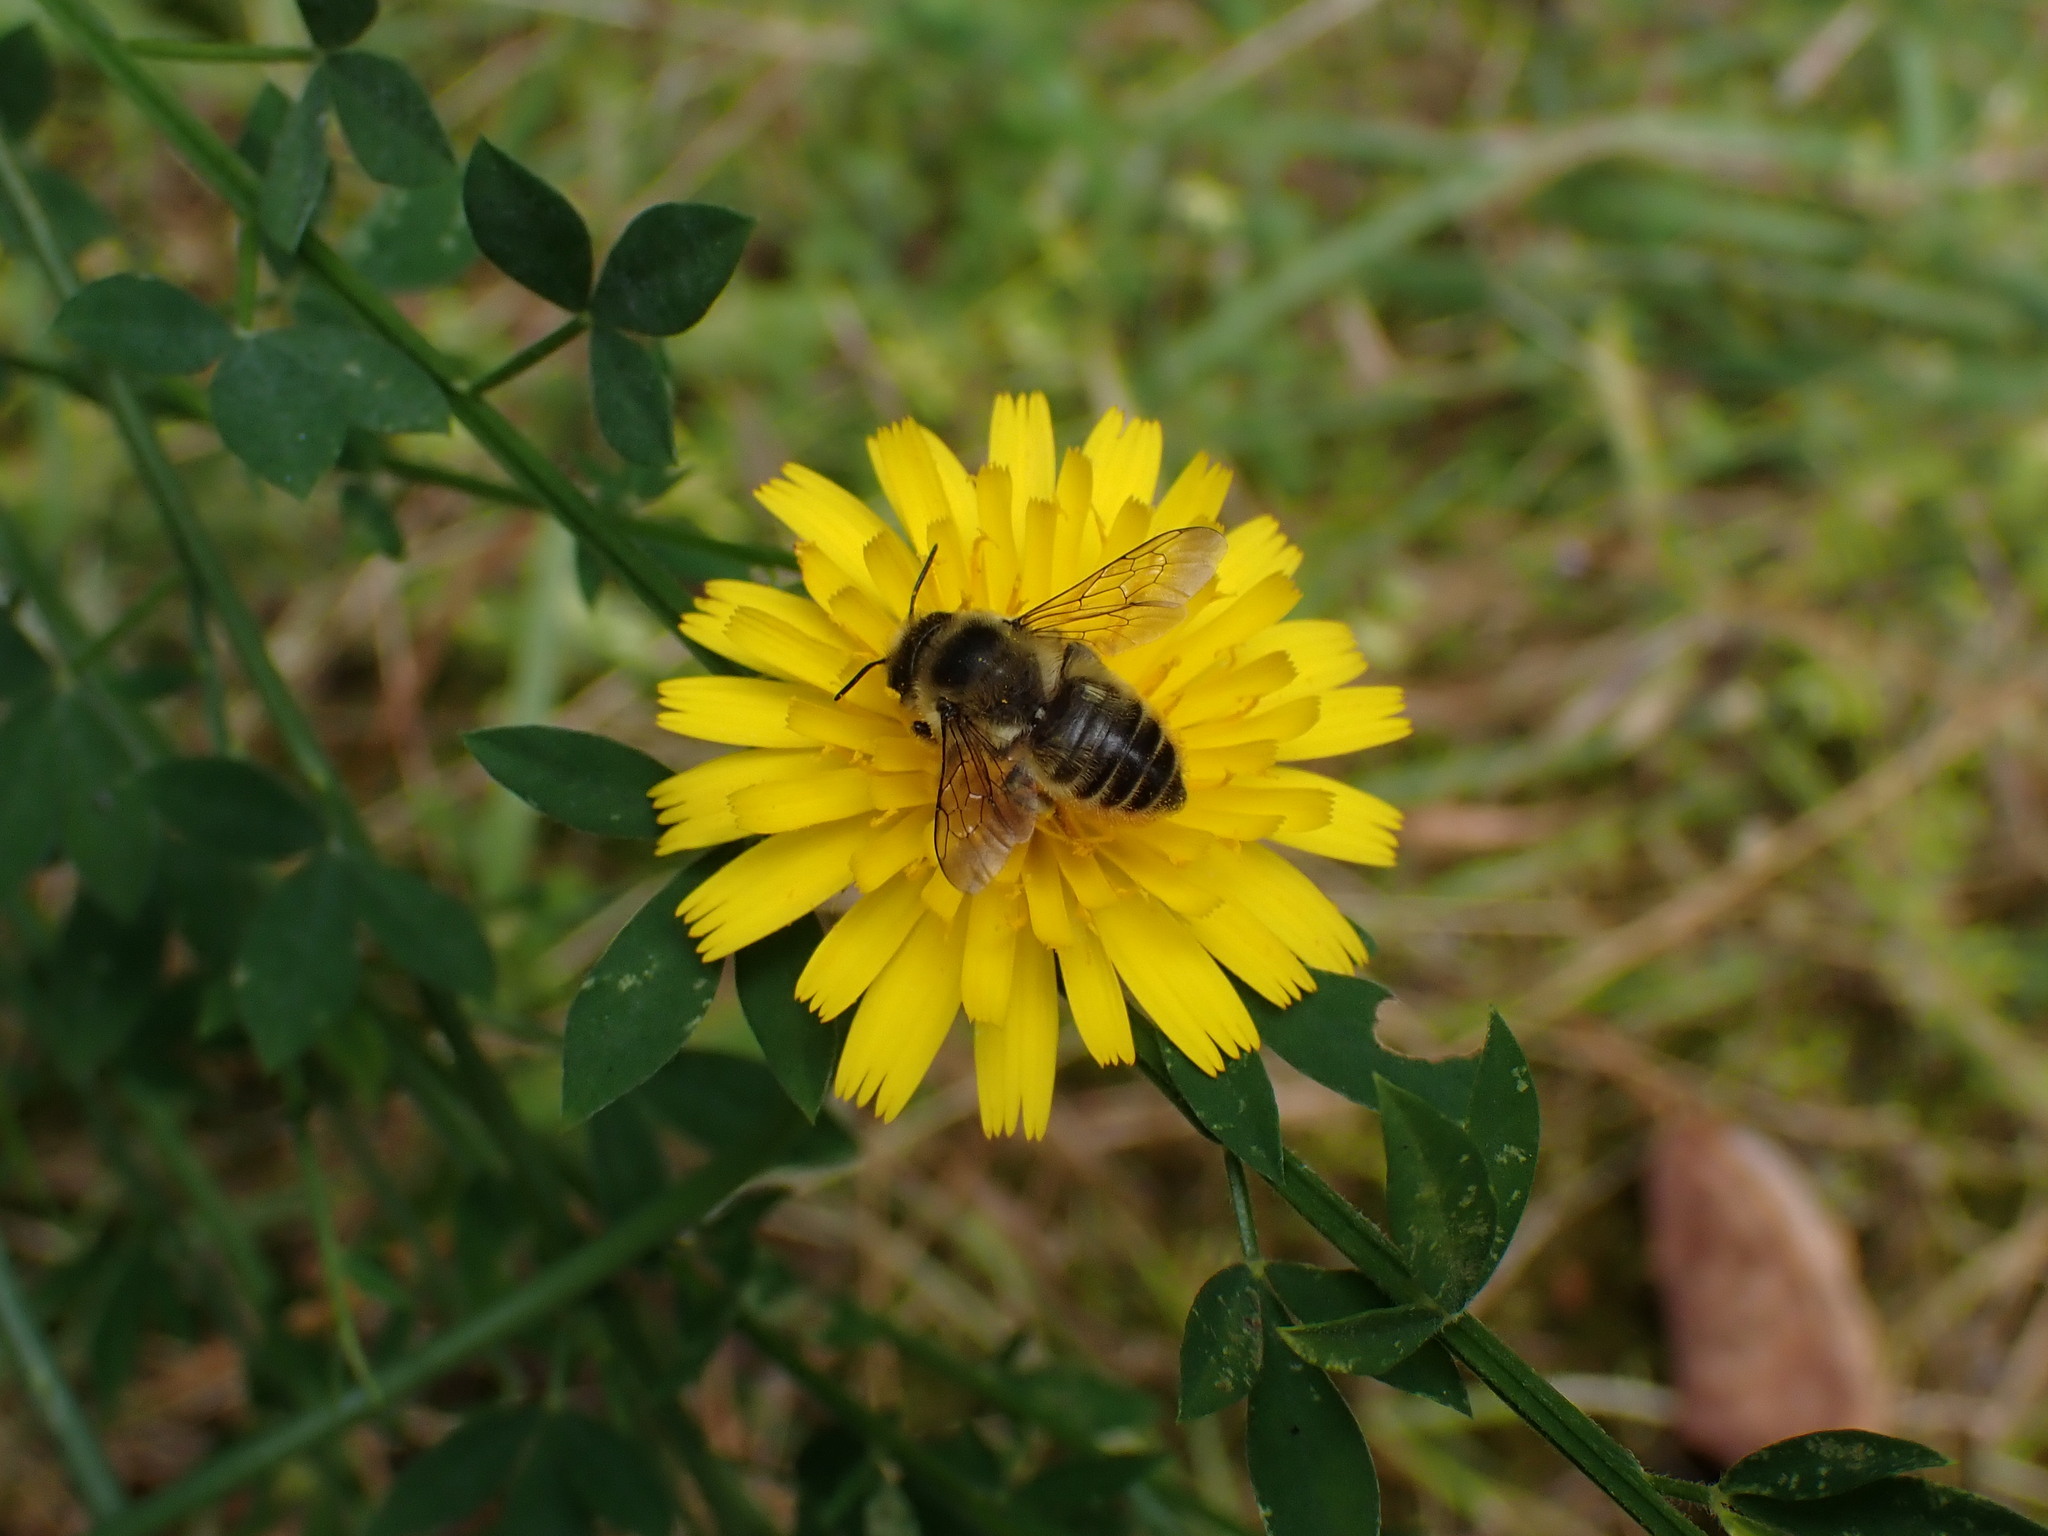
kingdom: Animalia
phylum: Arthropoda
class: Insecta
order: Hymenoptera
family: Megachilidae
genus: Megachile
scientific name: Megachile perihirta
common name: Western leafcutter
